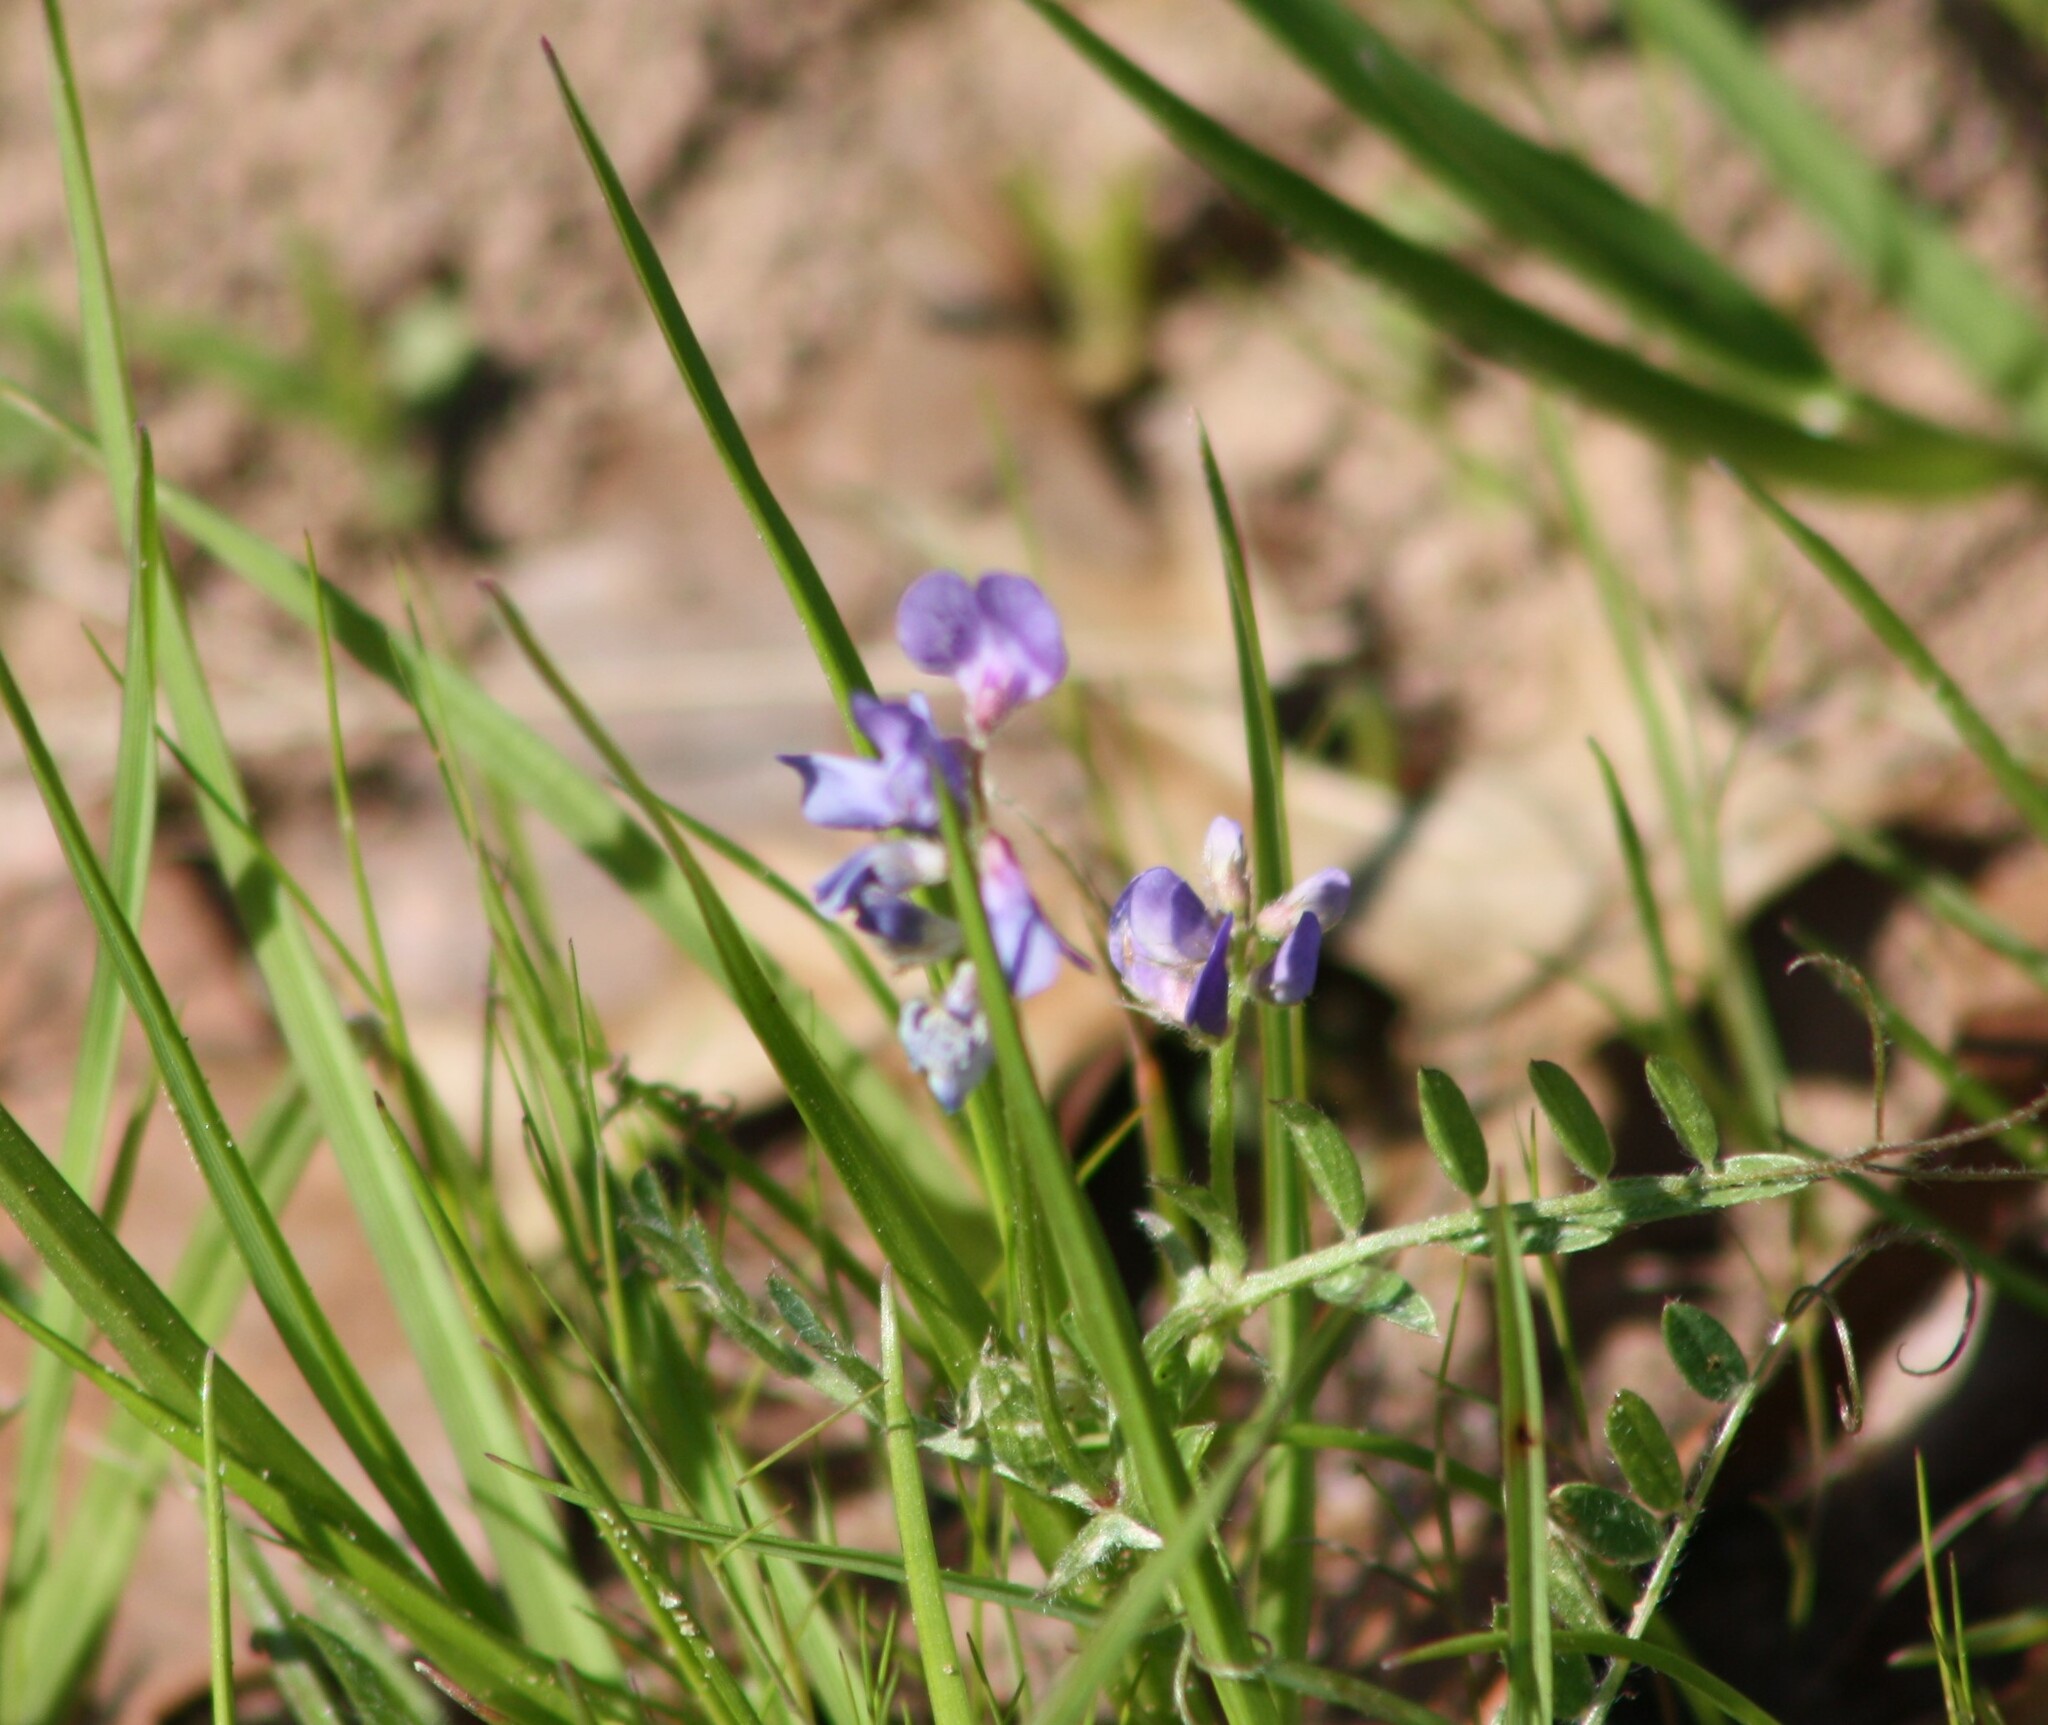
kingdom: Plantae
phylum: Tracheophyta
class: Magnoliopsida
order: Fabales
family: Fabaceae
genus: Vicia
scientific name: Vicia ludoviciana
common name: Louisiana vetch
